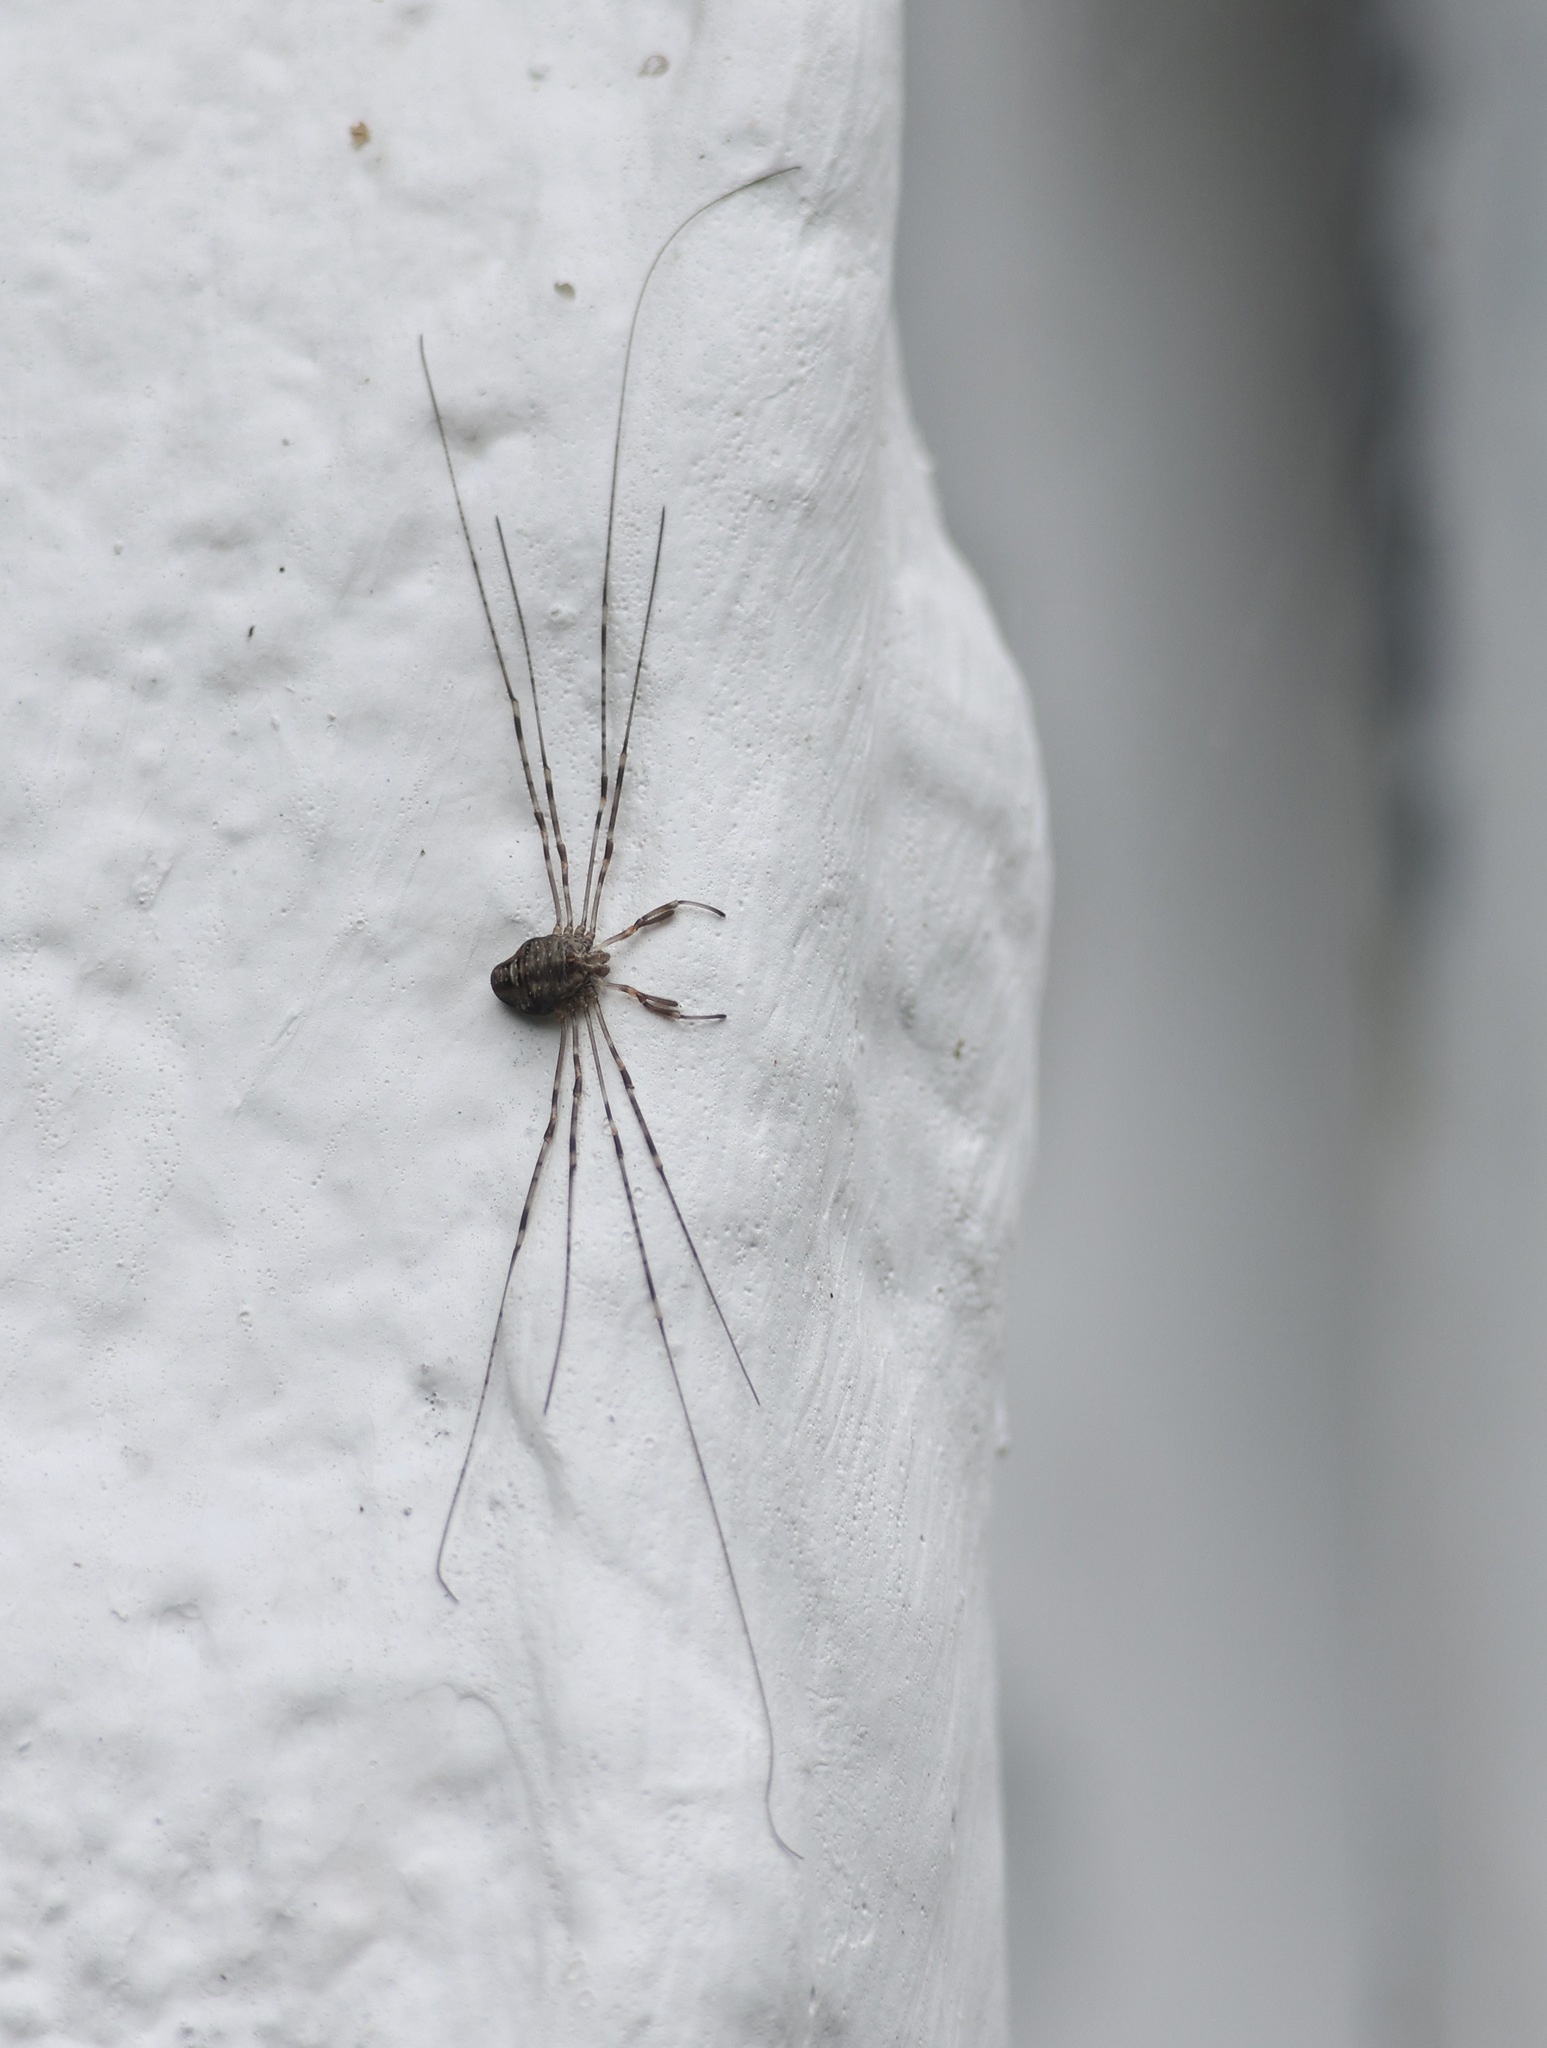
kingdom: Animalia
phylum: Arthropoda
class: Arachnida
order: Opiliones
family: Phalangiidae
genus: Dicranopalpus
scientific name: Dicranopalpus
